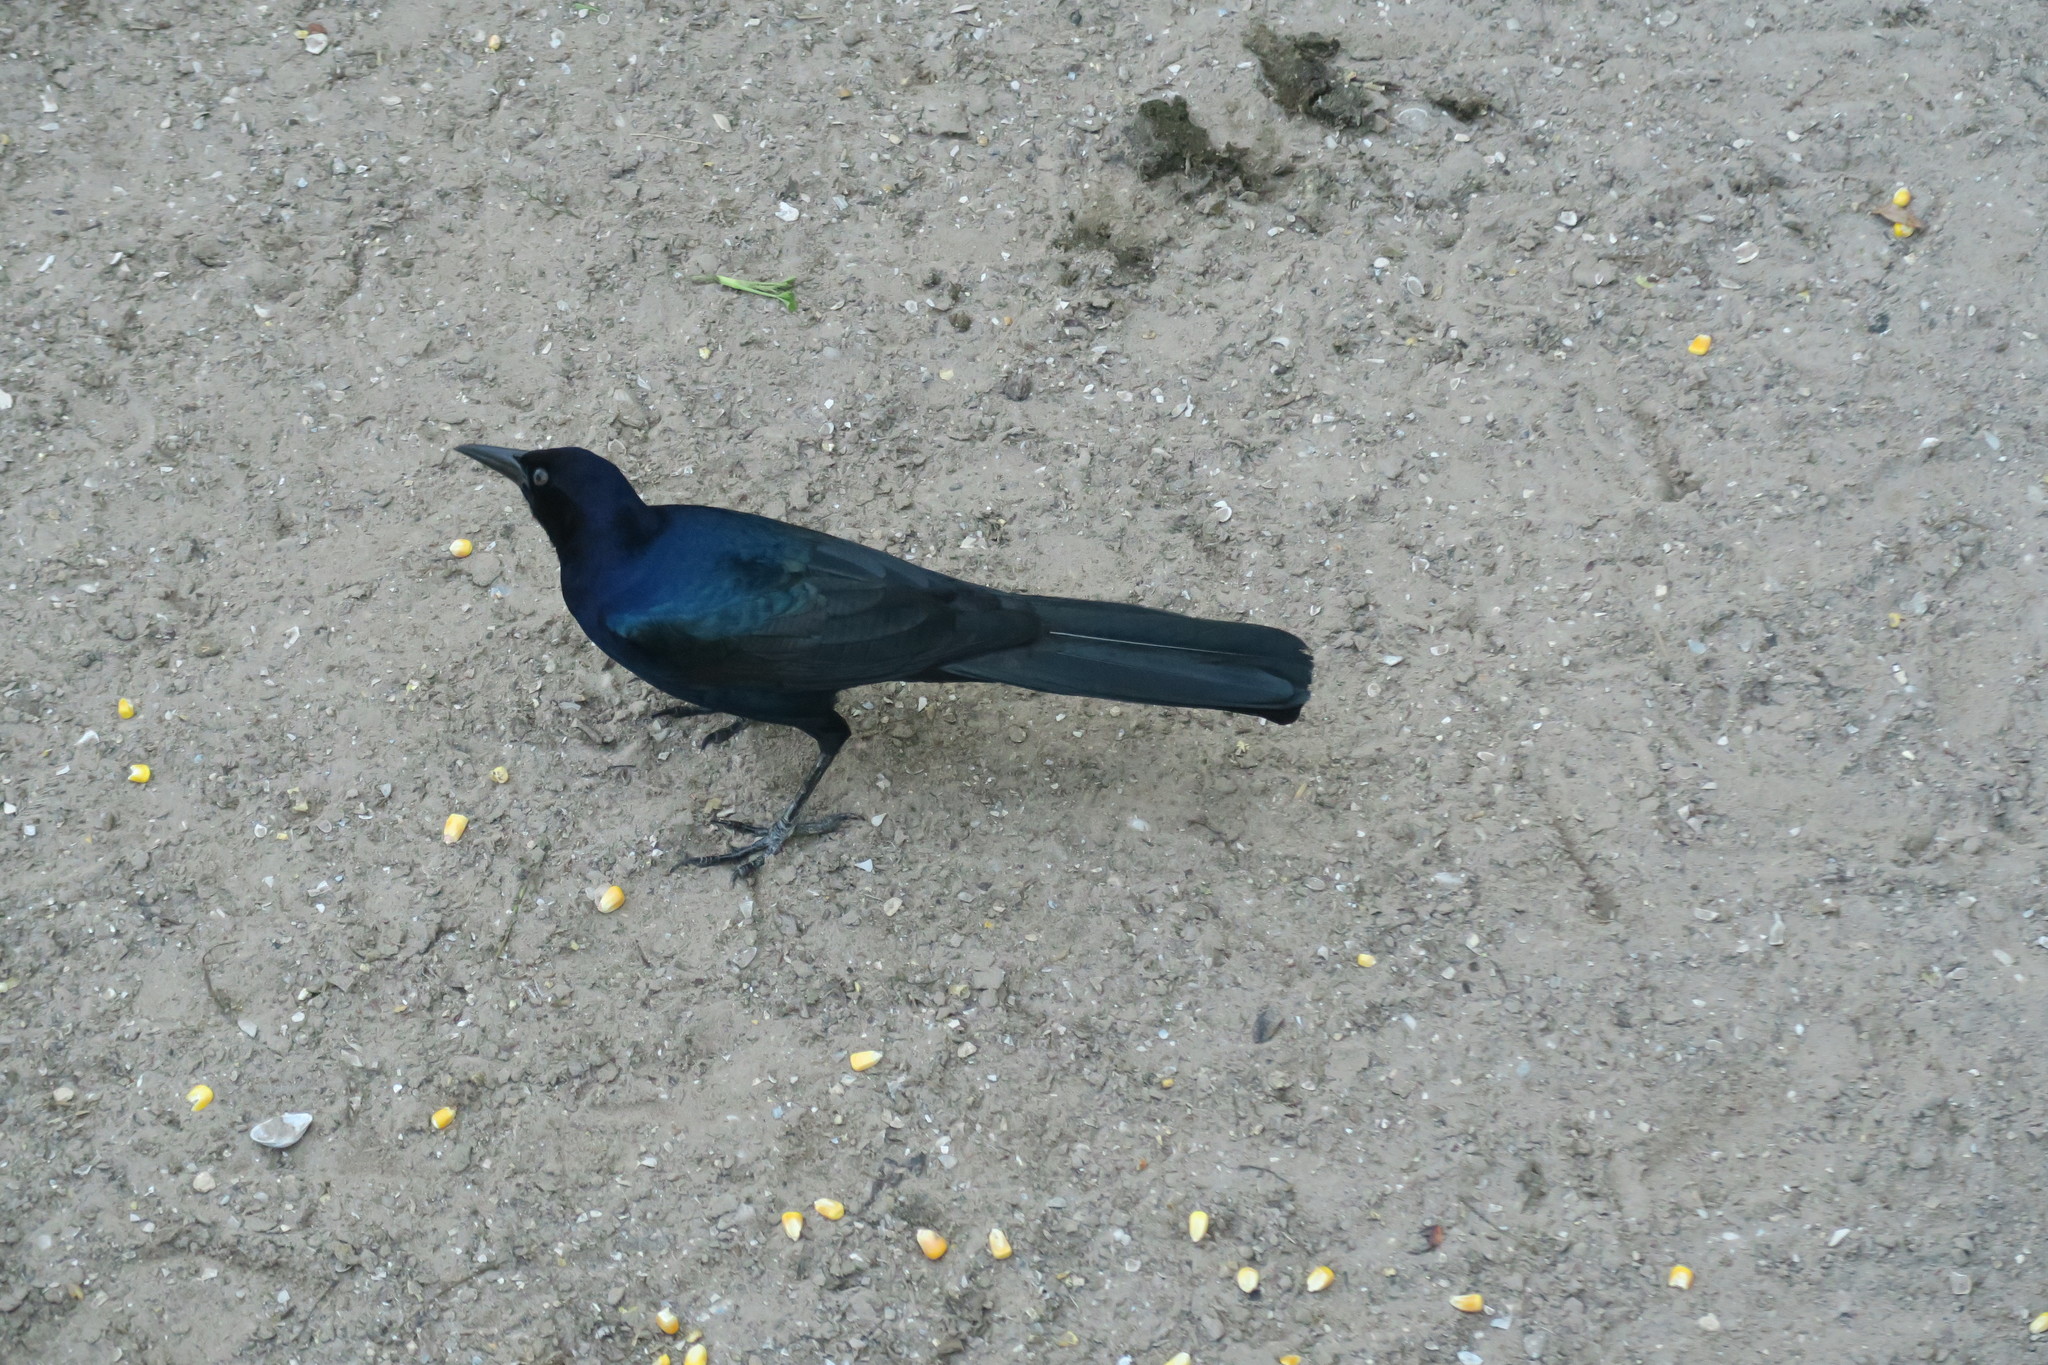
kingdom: Animalia
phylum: Chordata
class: Aves
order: Passeriformes
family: Icteridae
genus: Quiscalus
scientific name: Quiscalus major
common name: Boat-tailed grackle
